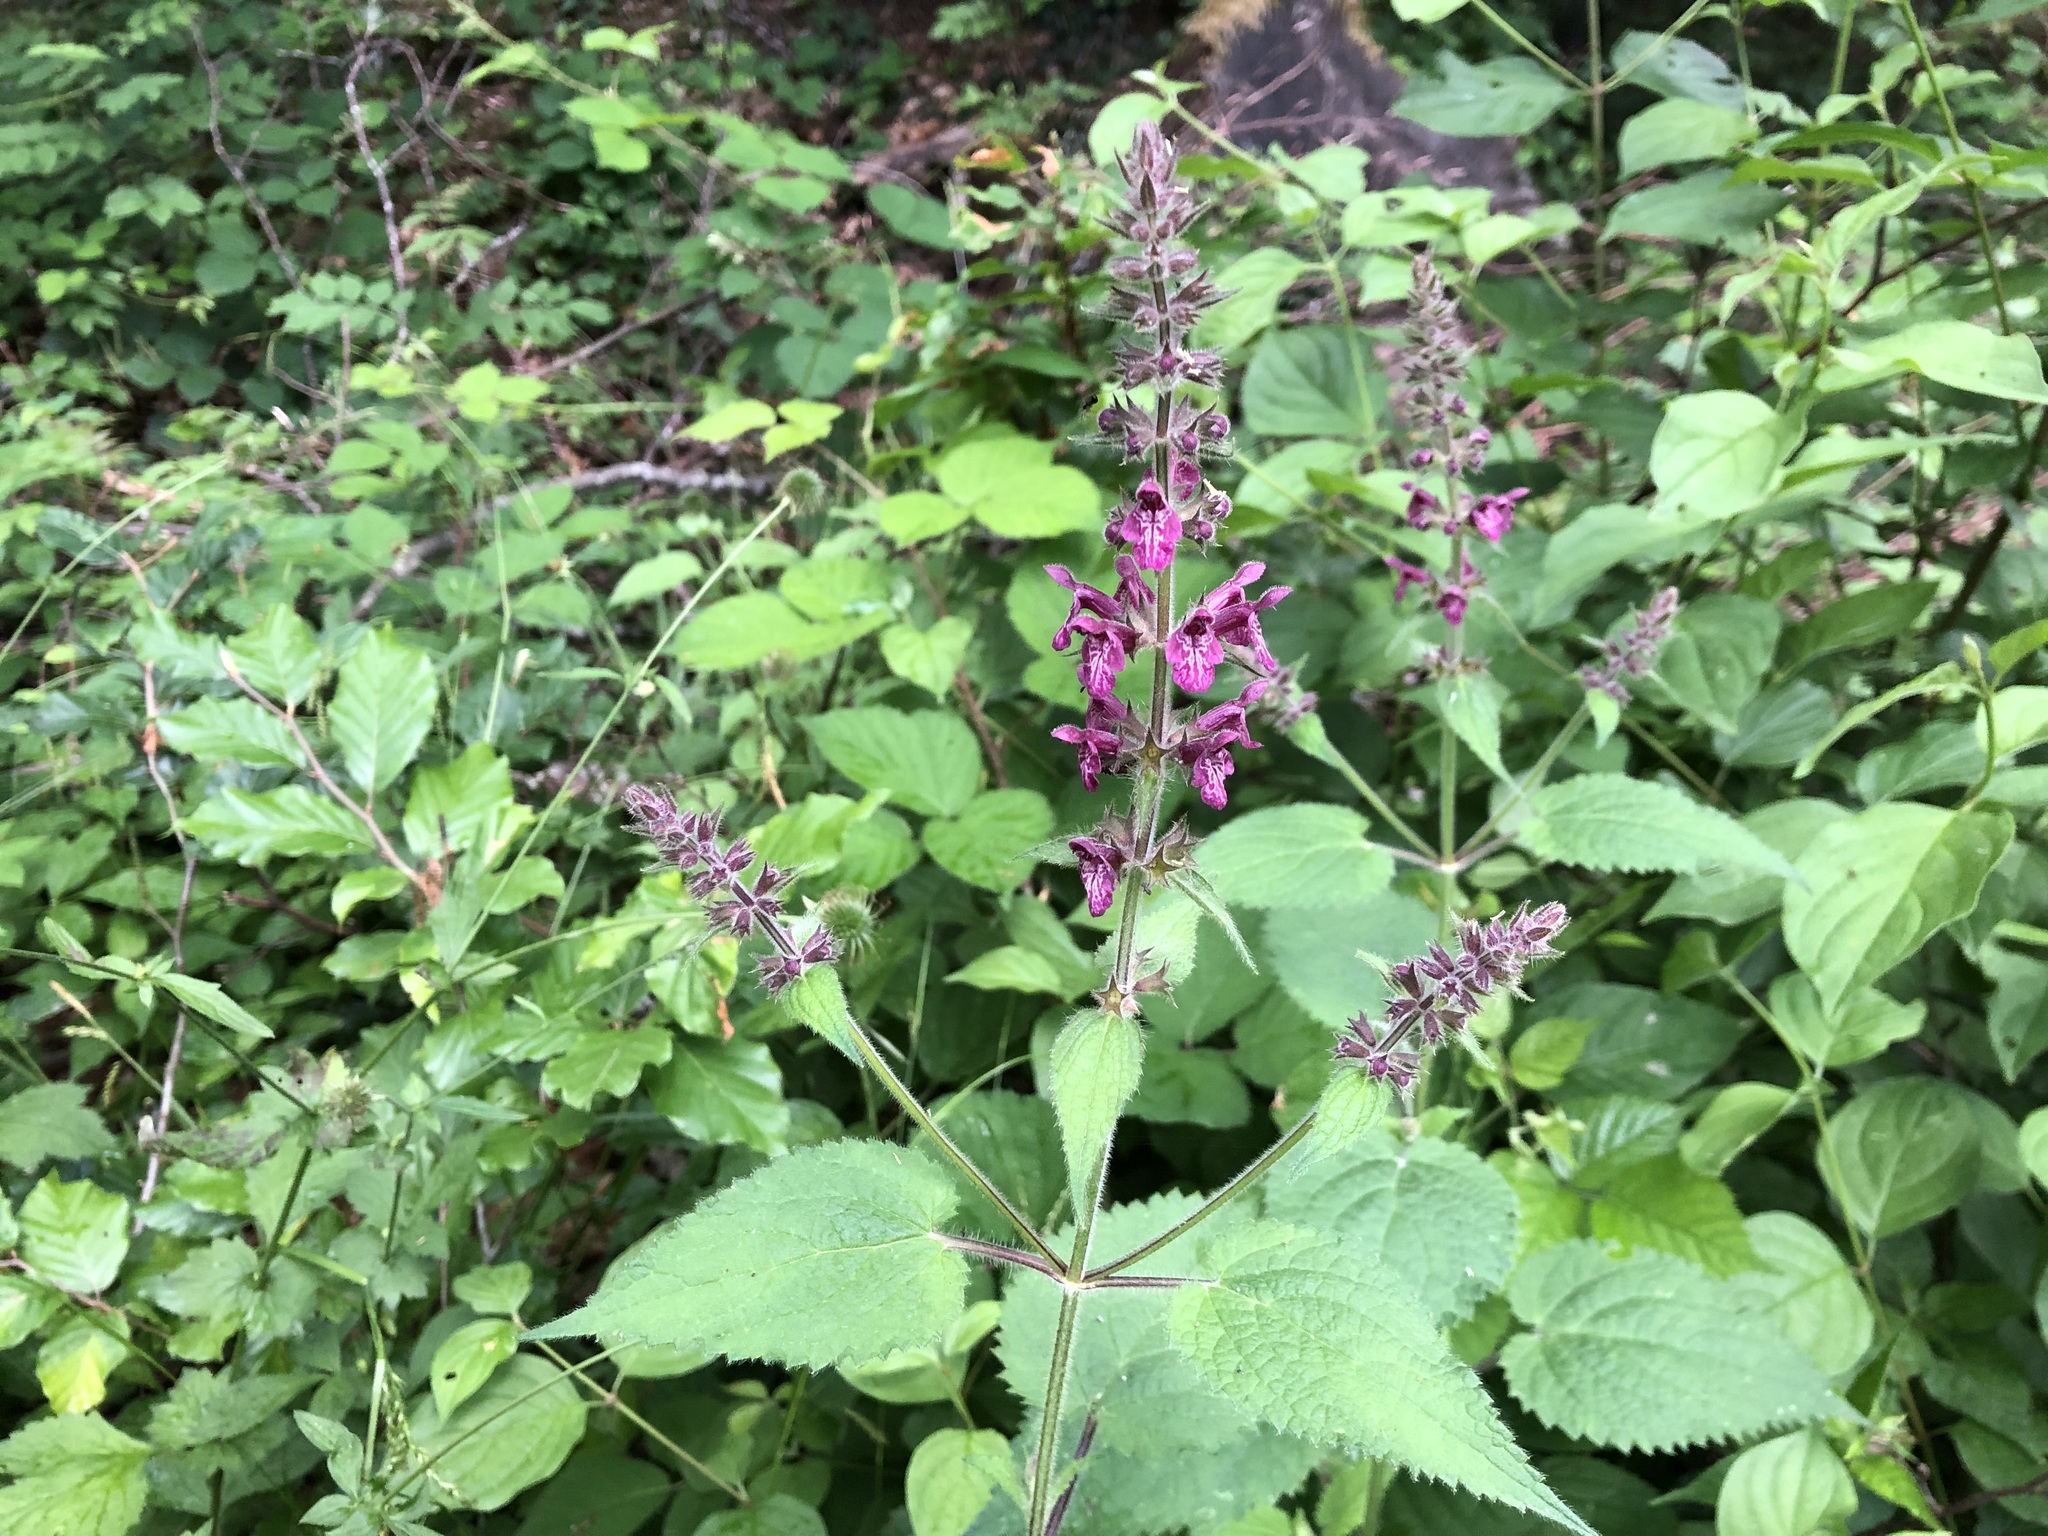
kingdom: Plantae
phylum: Tracheophyta
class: Magnoliopsida
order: Lamiales
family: Lamiaceae
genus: Stachys
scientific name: Stachys sylvatica
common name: Hedge woundwort
